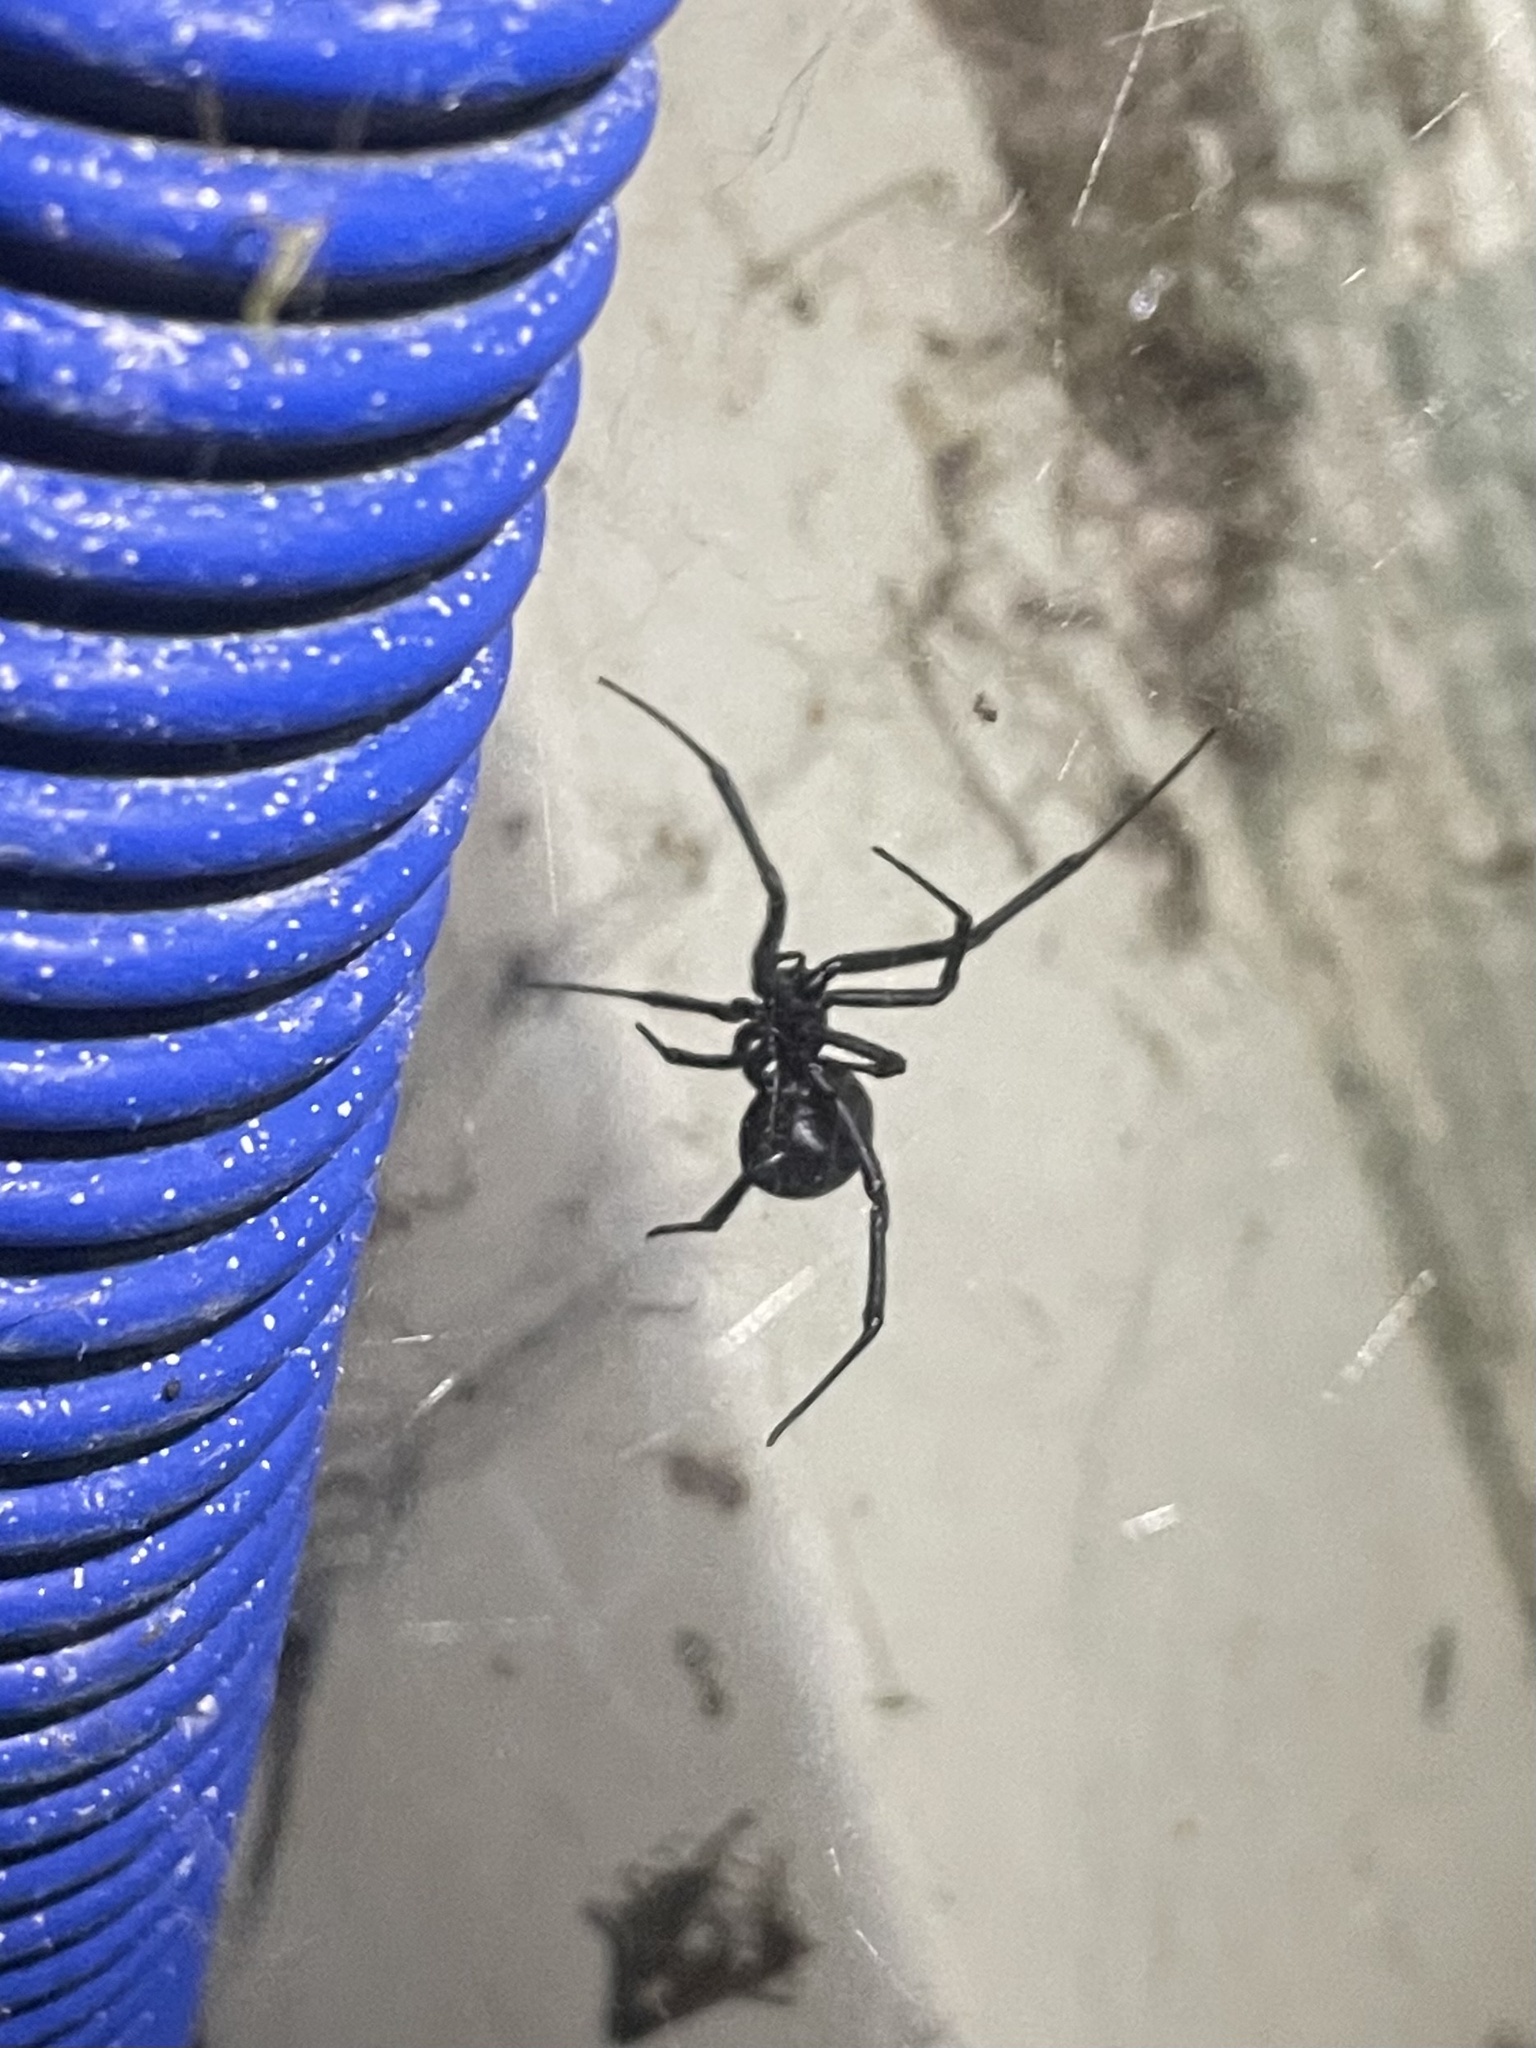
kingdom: Animalia
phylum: Arthropoda
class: Arachnida
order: Araneae
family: Theridiidae
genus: Latrodectus
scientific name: Latrodectus hesperus
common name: Western black widow
